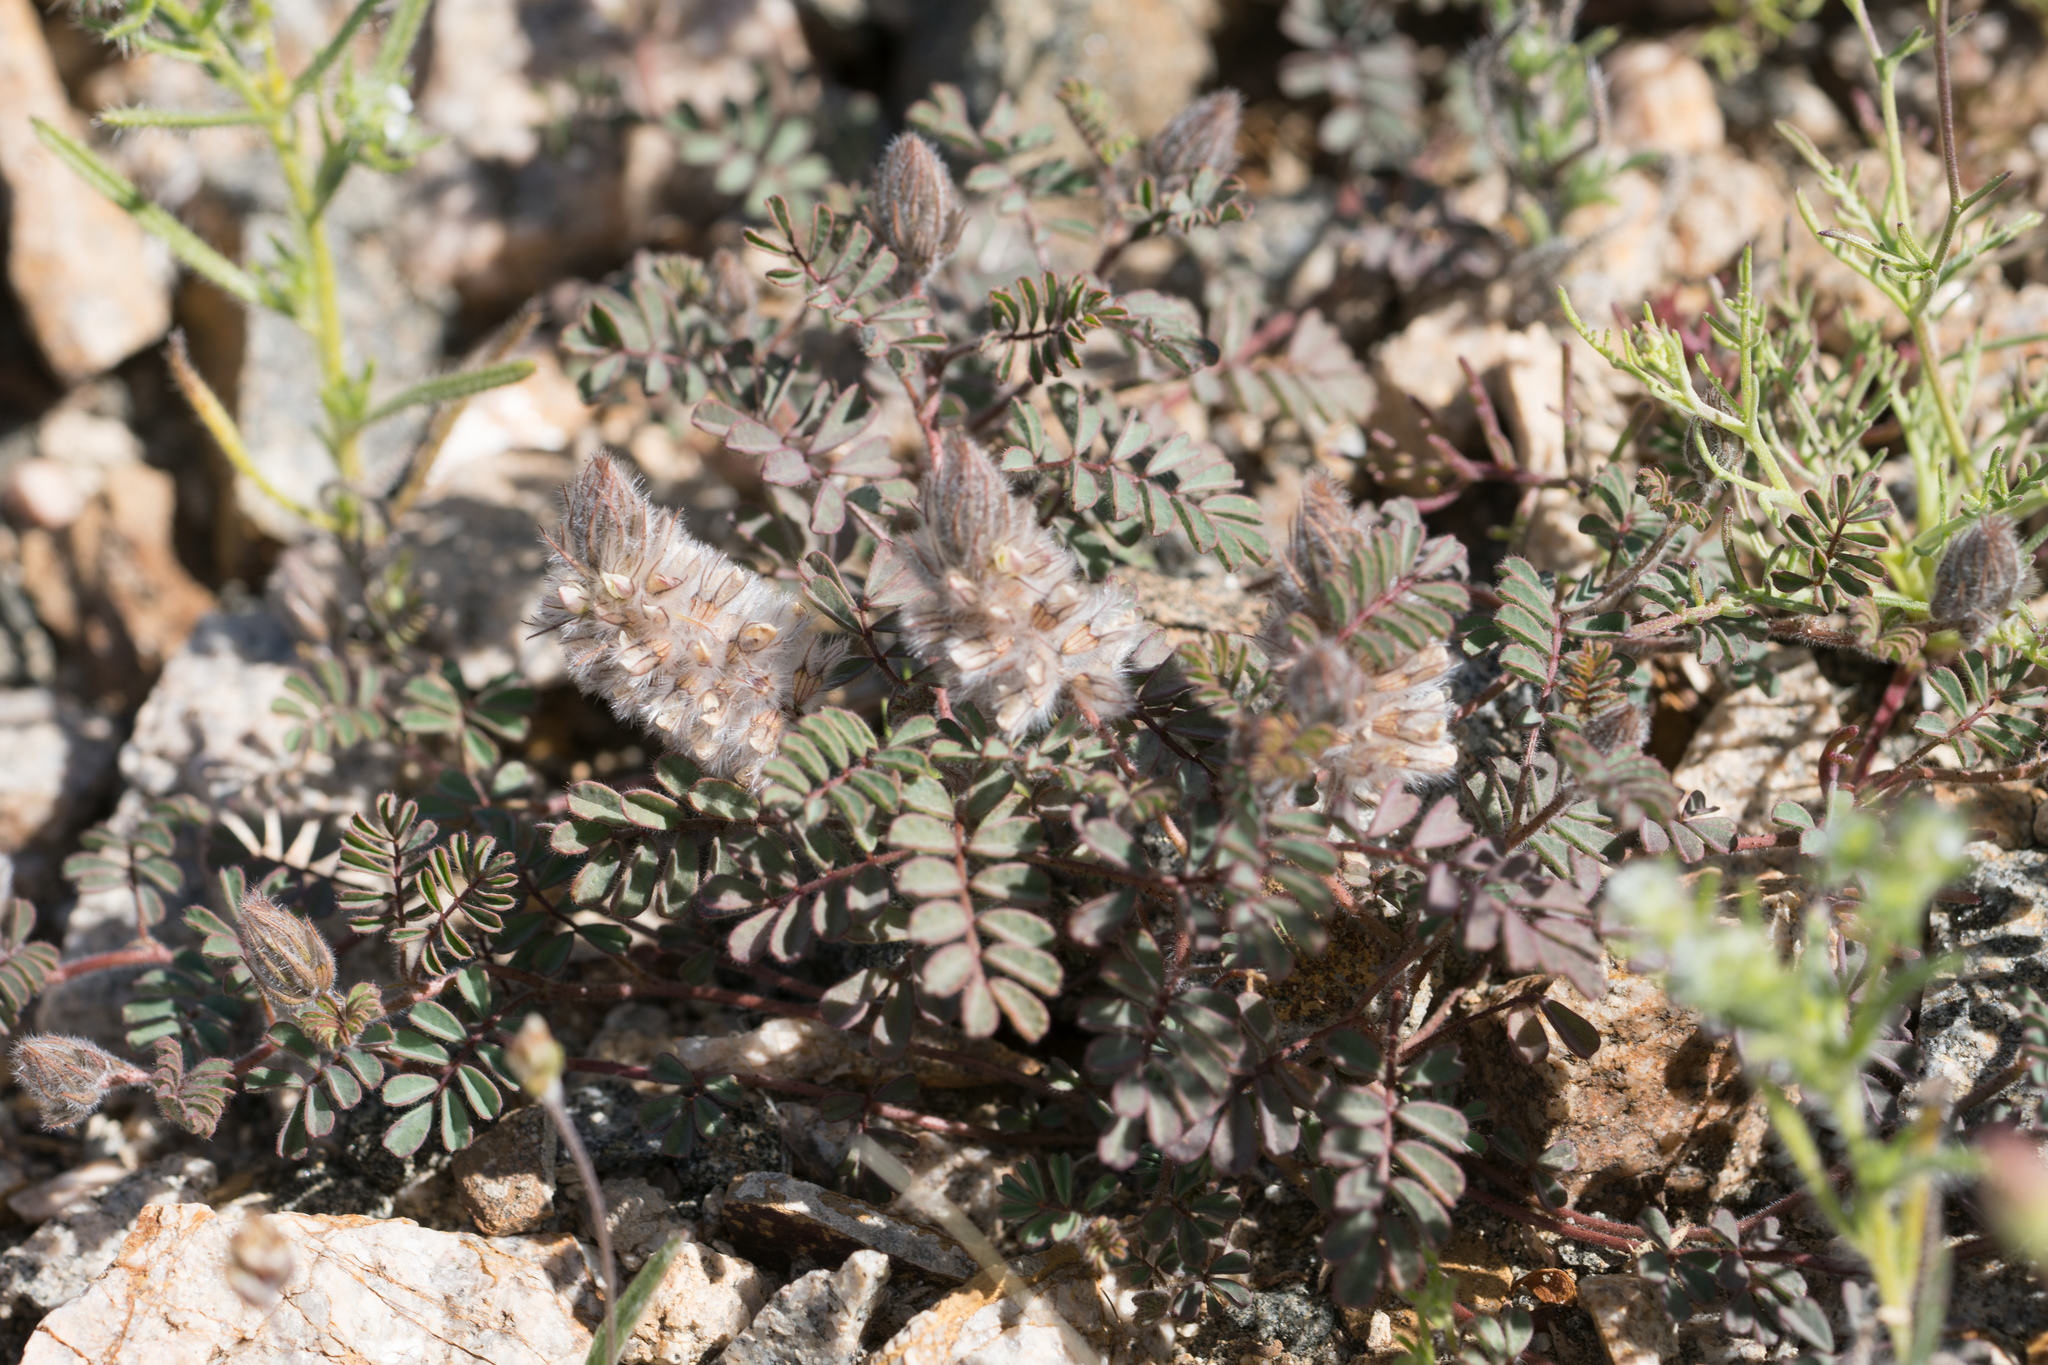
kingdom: Plantae
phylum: Tracheophyta
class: Magnoliopsida
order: Fabales
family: Fabaceae
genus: Dalea
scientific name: Dalea mollis
